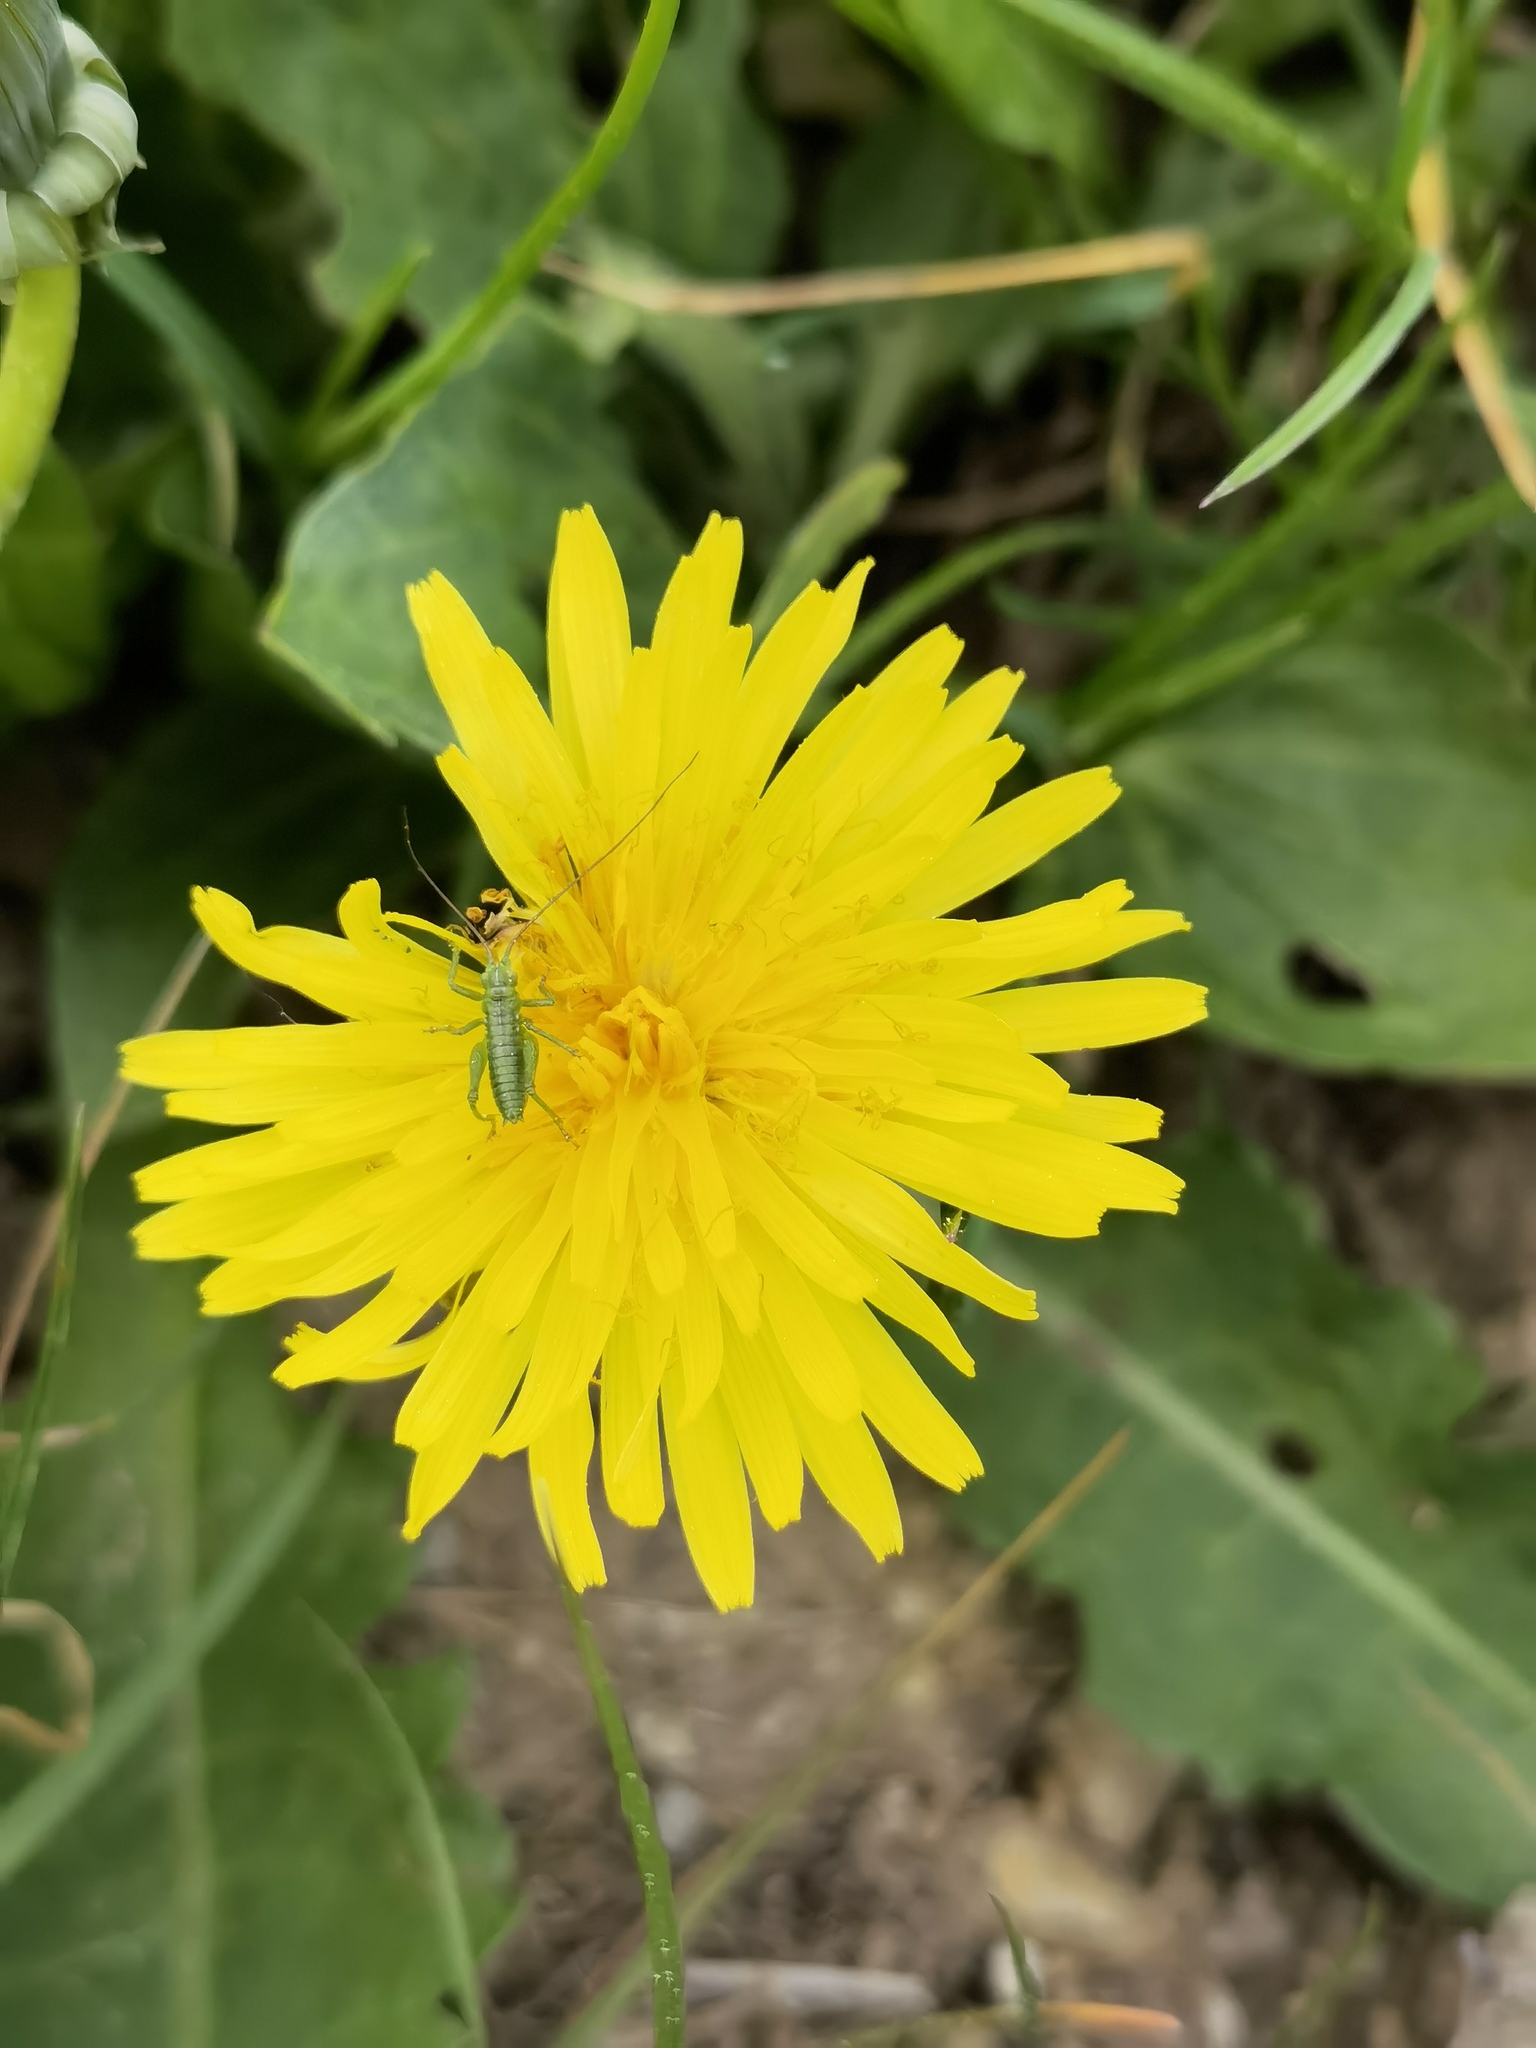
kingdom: Animalia
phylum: Arthropoda
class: Insecta
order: Orthoptera
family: Tettigoniidae
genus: Tettigonia
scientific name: Tettigonia viridissima
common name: Great green bush-cricket
